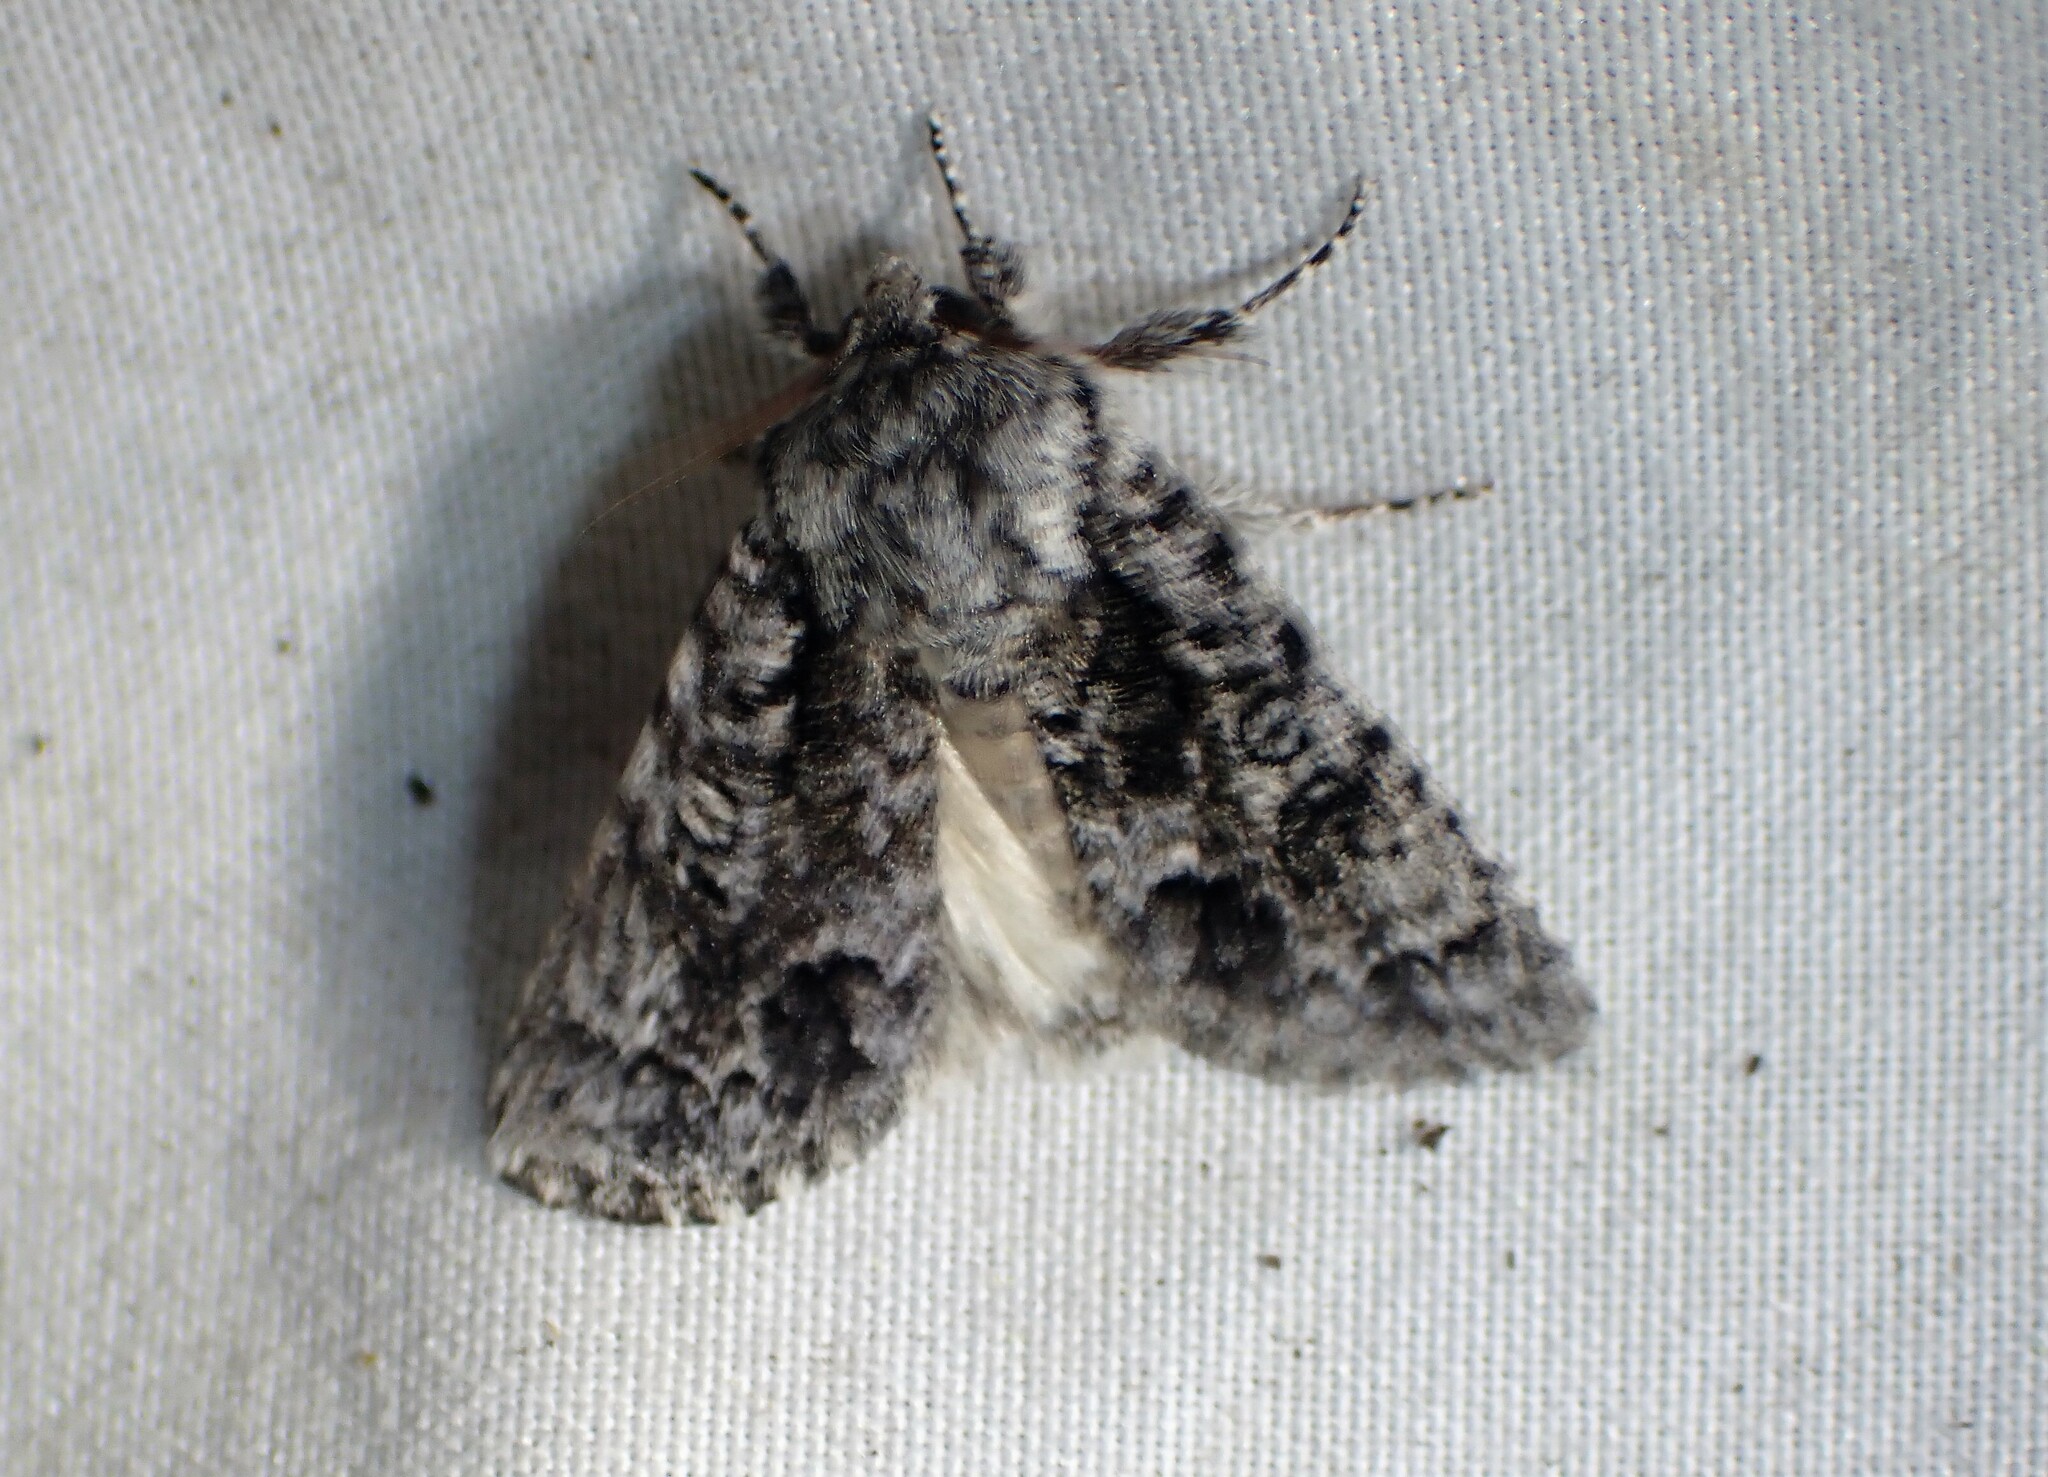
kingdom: Animalia
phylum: Arthropoda
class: Insecta
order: Lepidoptera
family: Noctuidae
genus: Acronicta
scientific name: Acronicta impressa
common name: Impressed dagger
